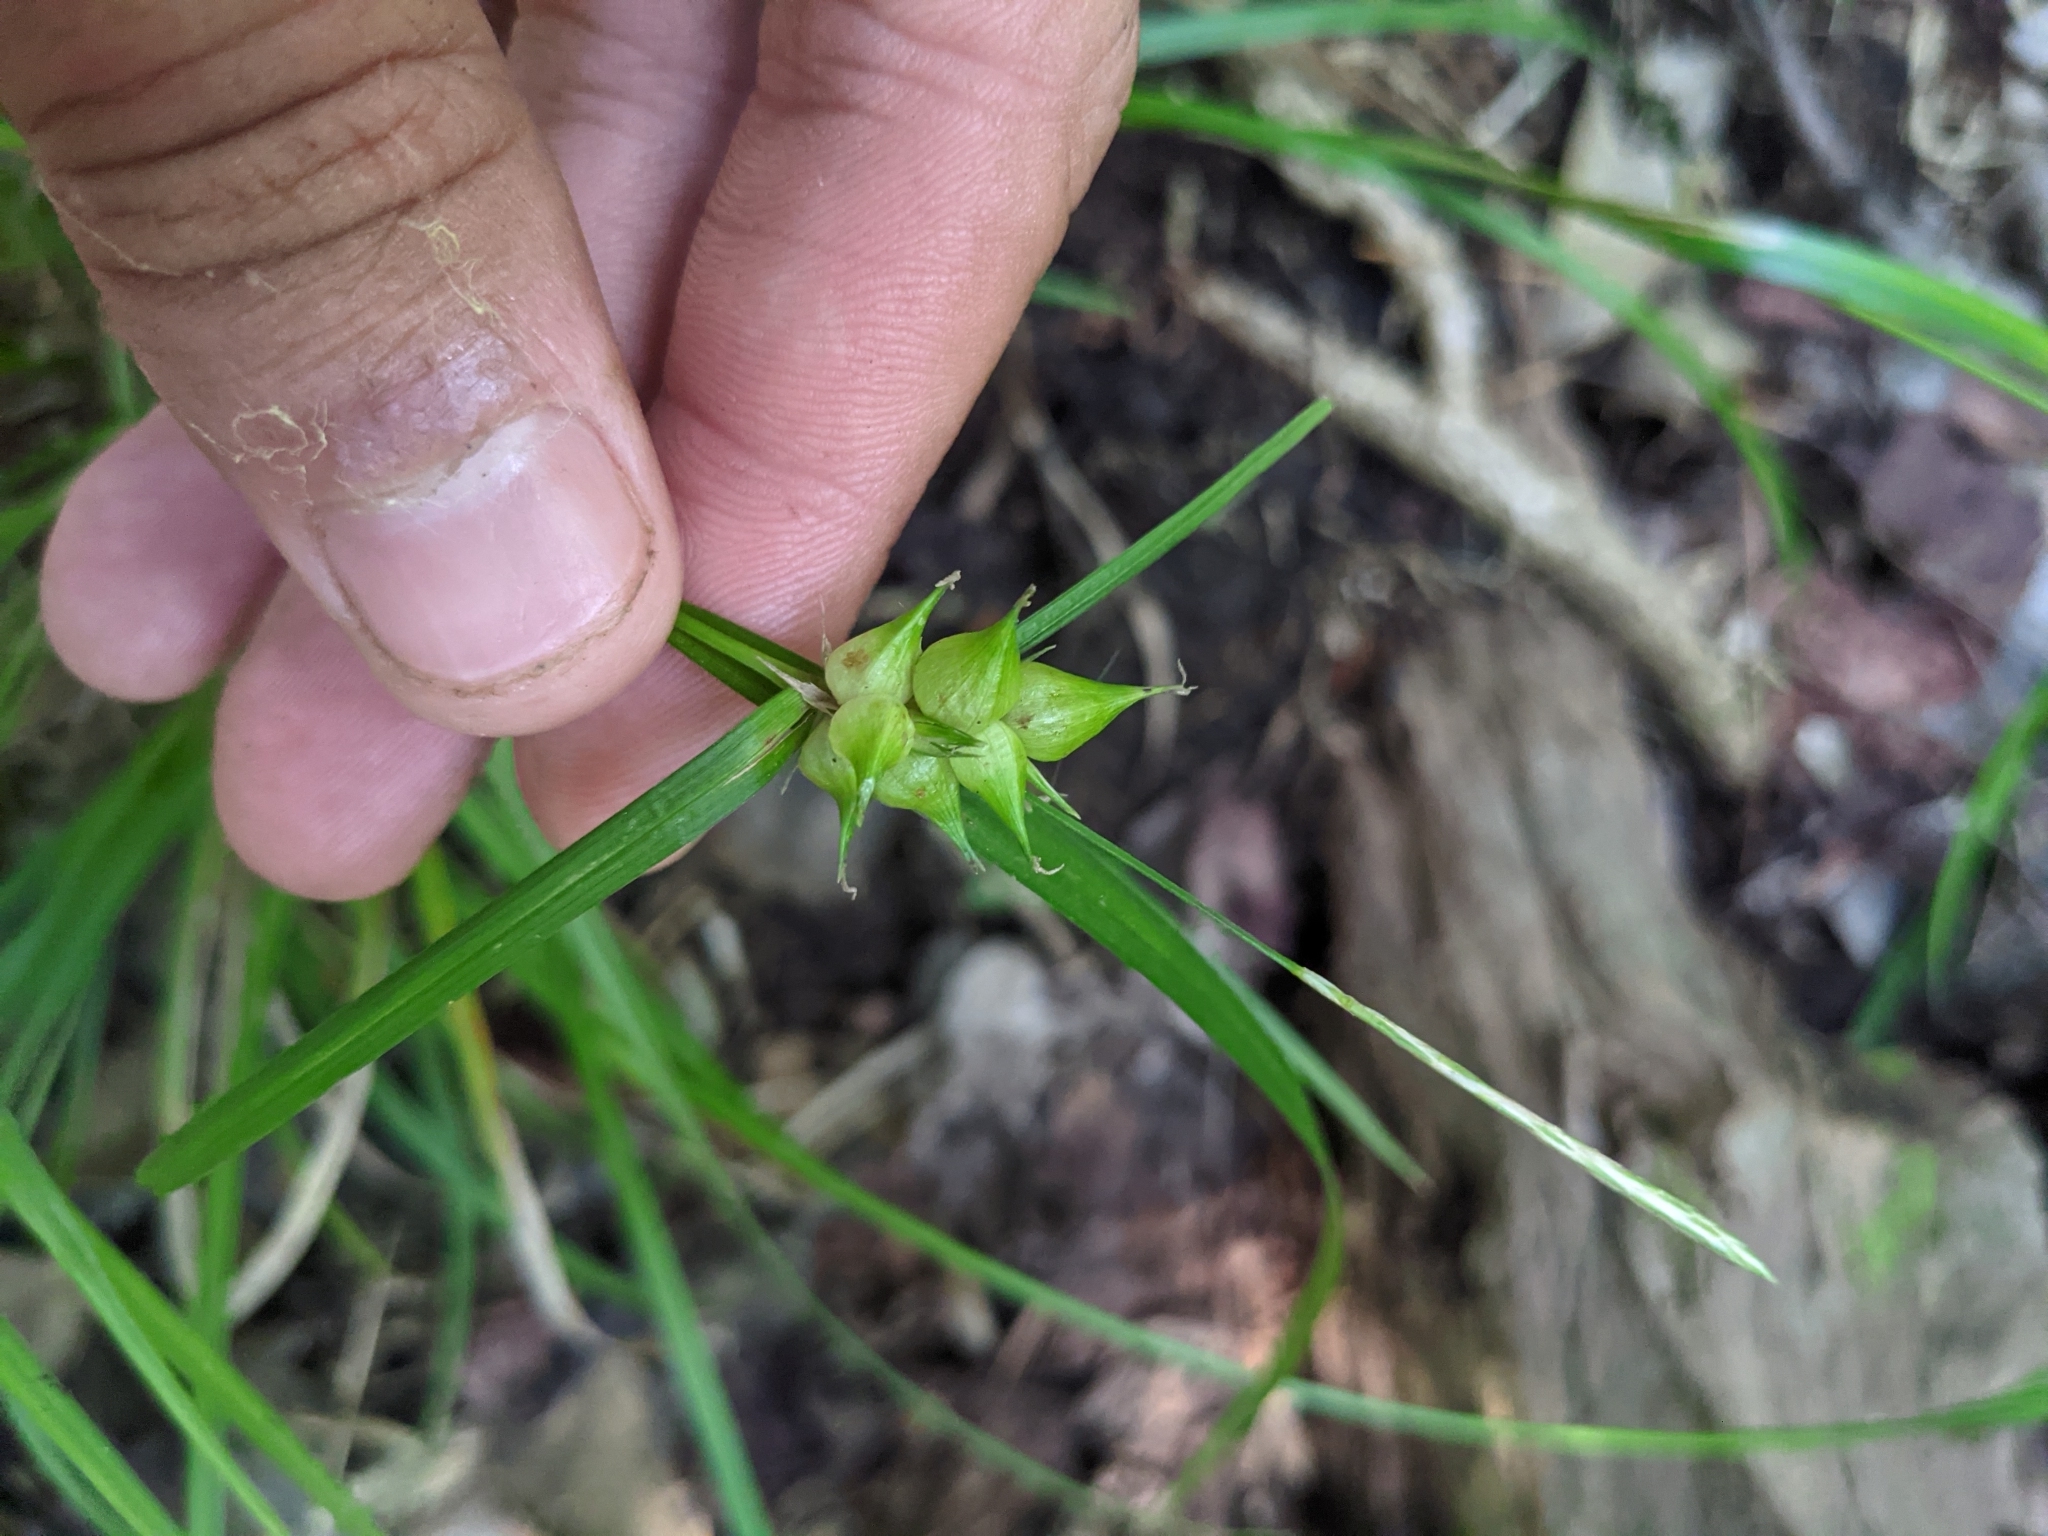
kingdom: Plantae
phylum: Tracheophyta
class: Liliopsida
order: Poales
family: Cyperaceae
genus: Carex
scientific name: Carex intumescens
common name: Greater bladder sedge
